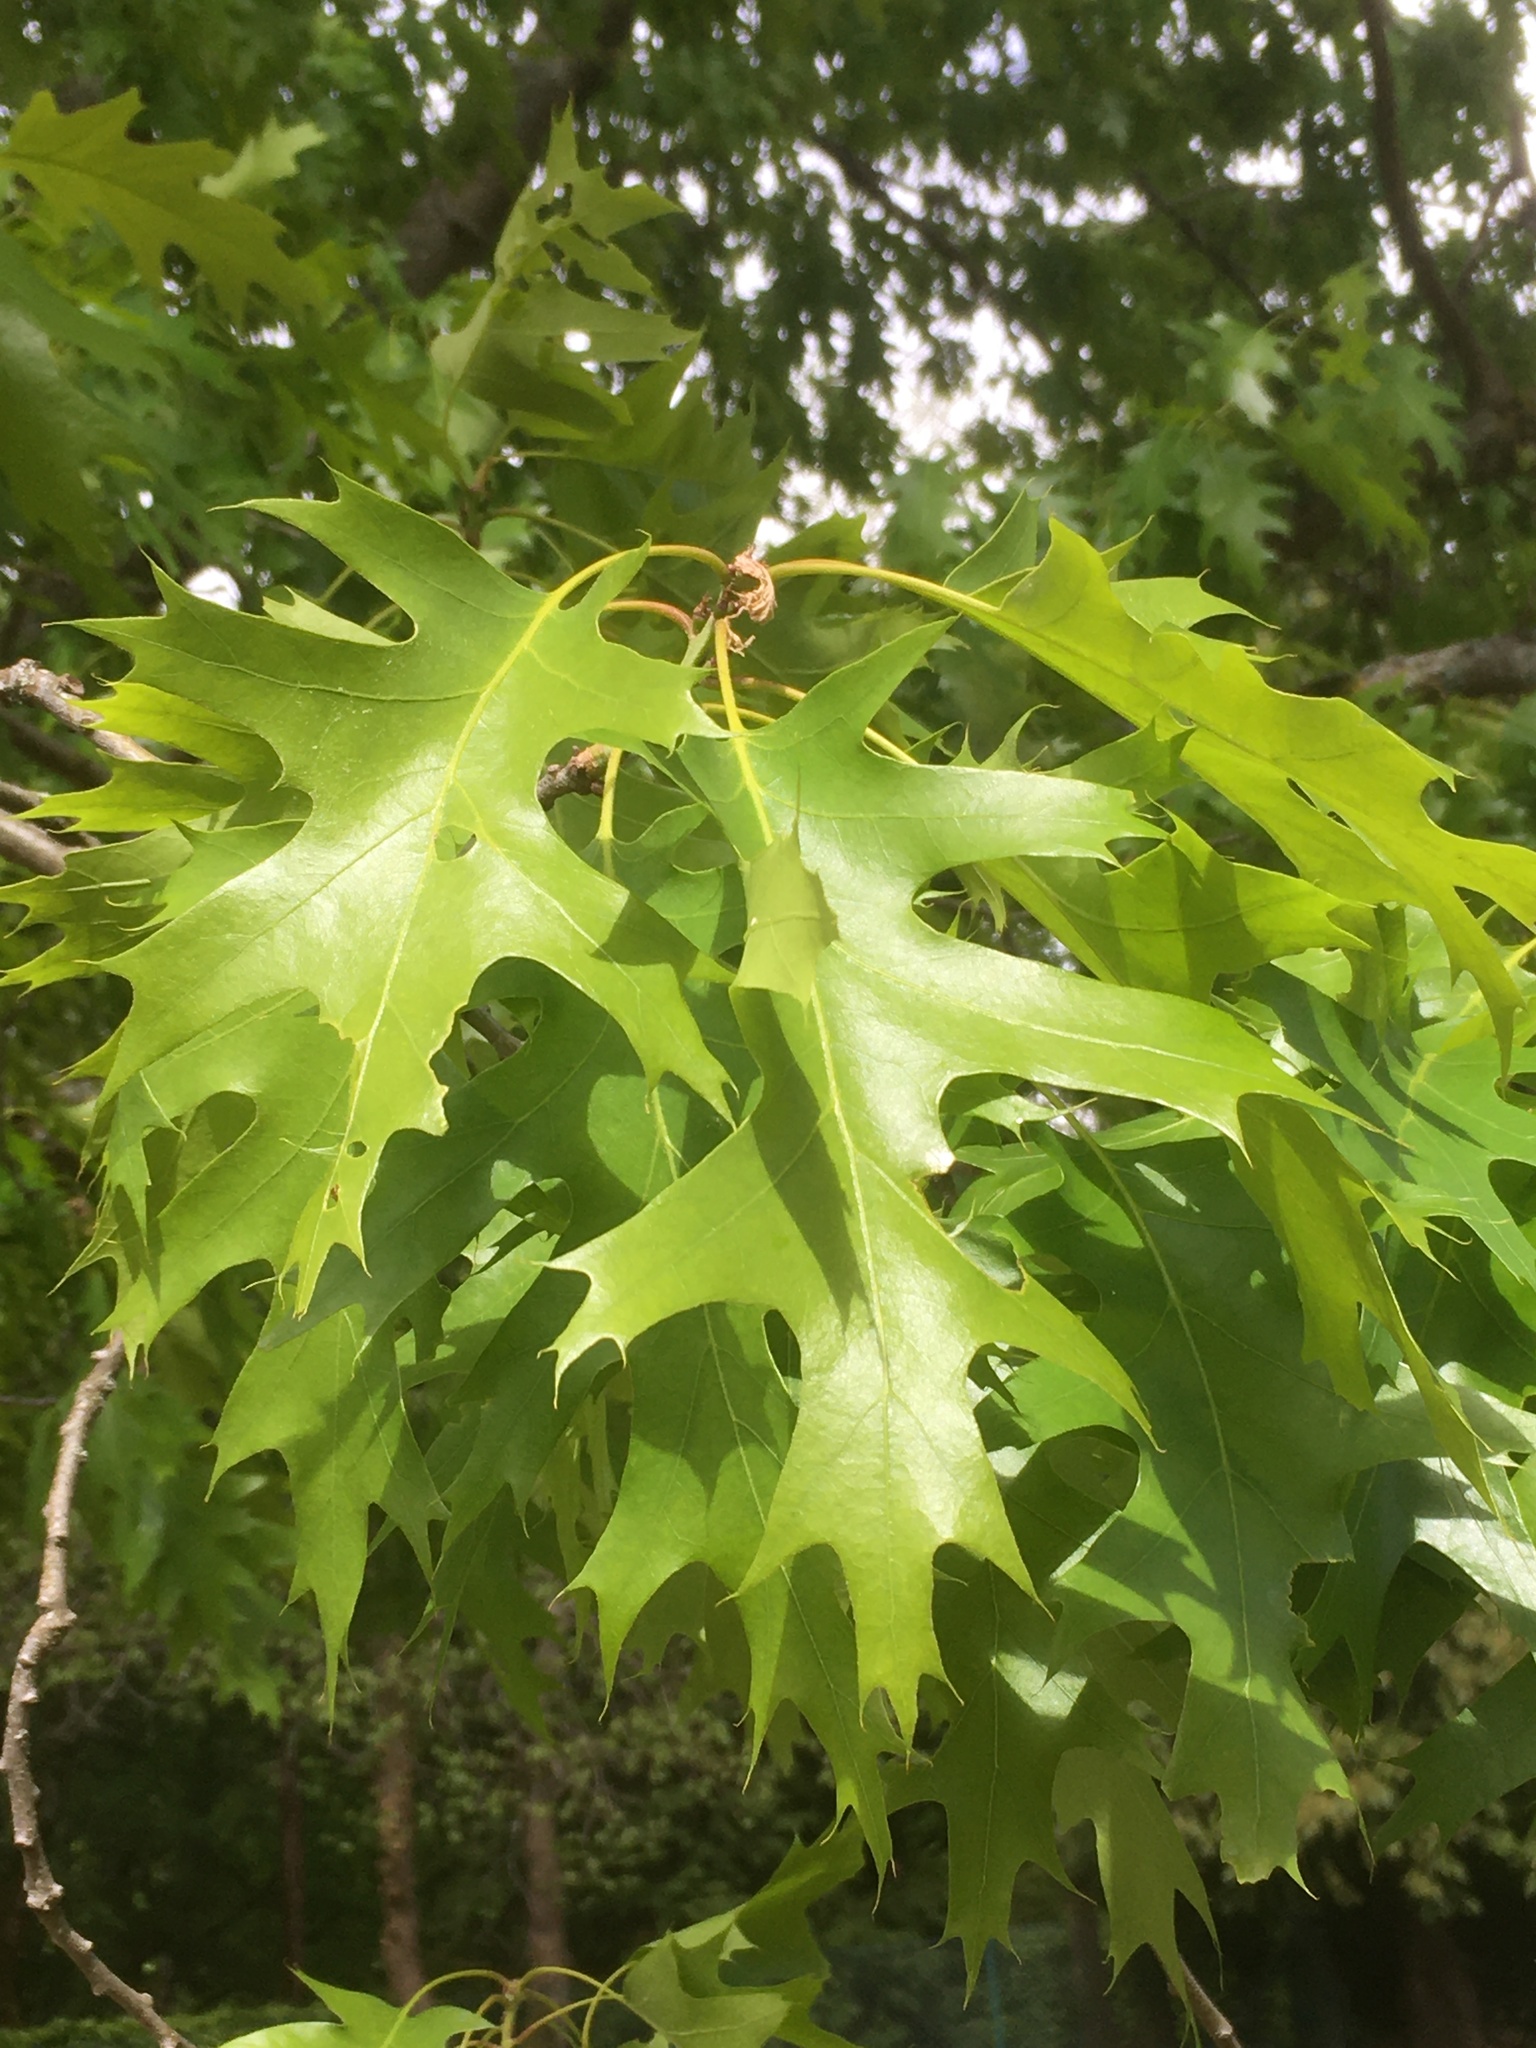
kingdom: Plantae
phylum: Tracheophyta
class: Magnoliopsida
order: Fagales
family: Fagaceae
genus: Quercus
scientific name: Quercus rubra
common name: Red oak
